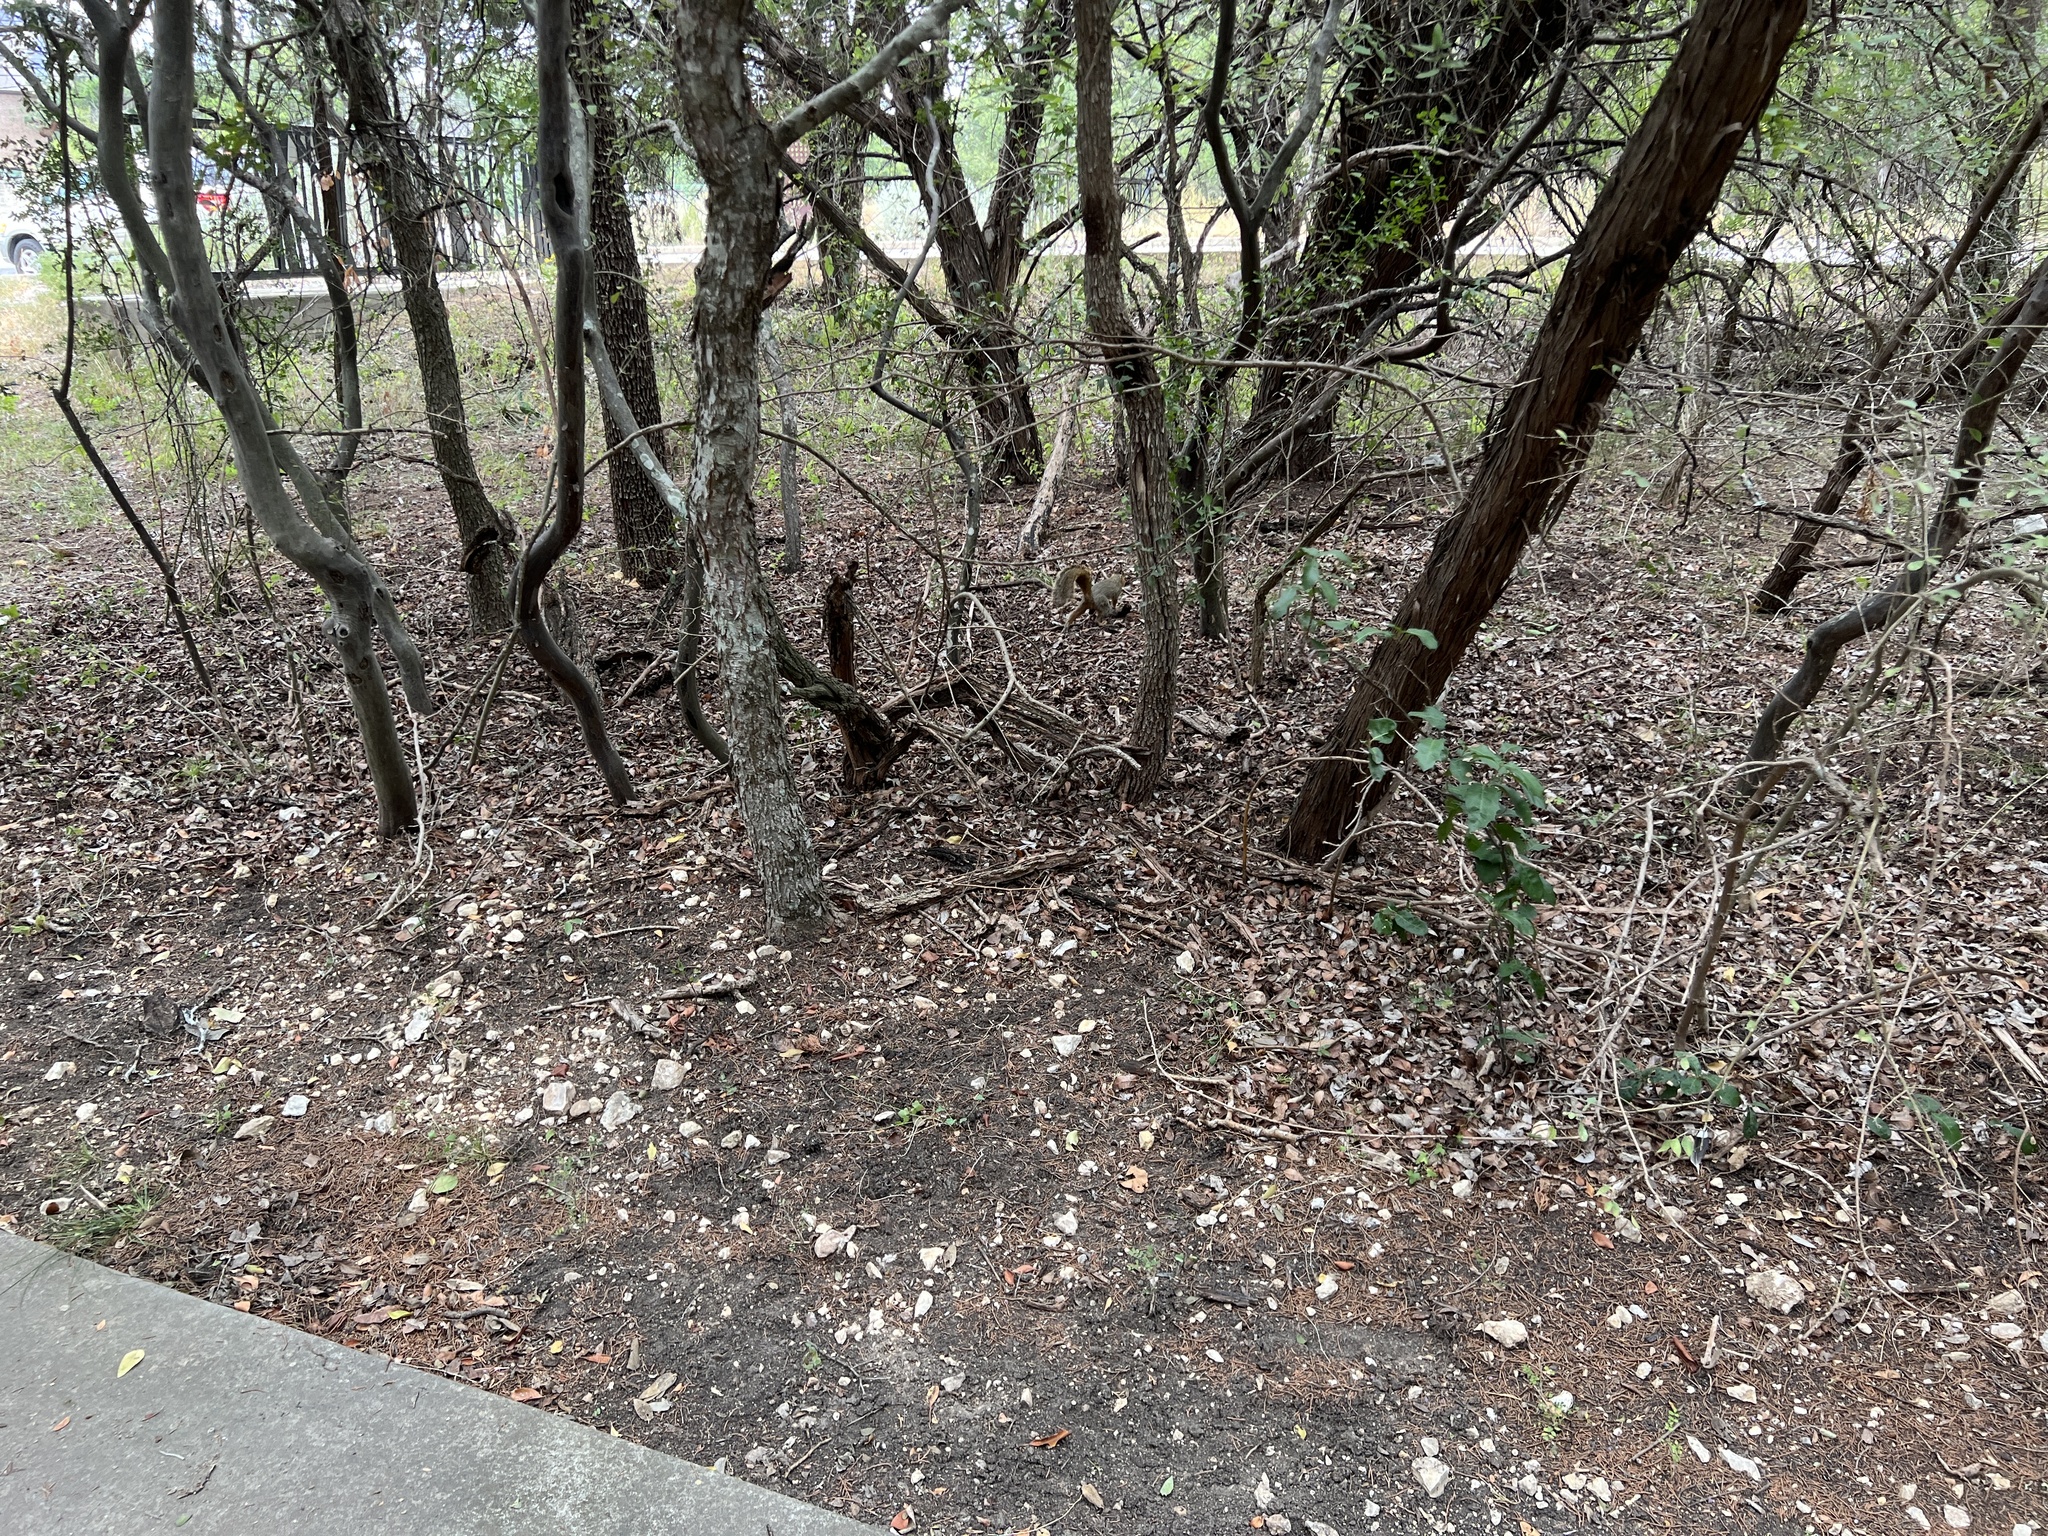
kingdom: Animalia
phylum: Chordata
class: Mammalia
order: Rodentia
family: Sciuridae
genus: Sciurus
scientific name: Sciurus niger
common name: Fox squirrel
